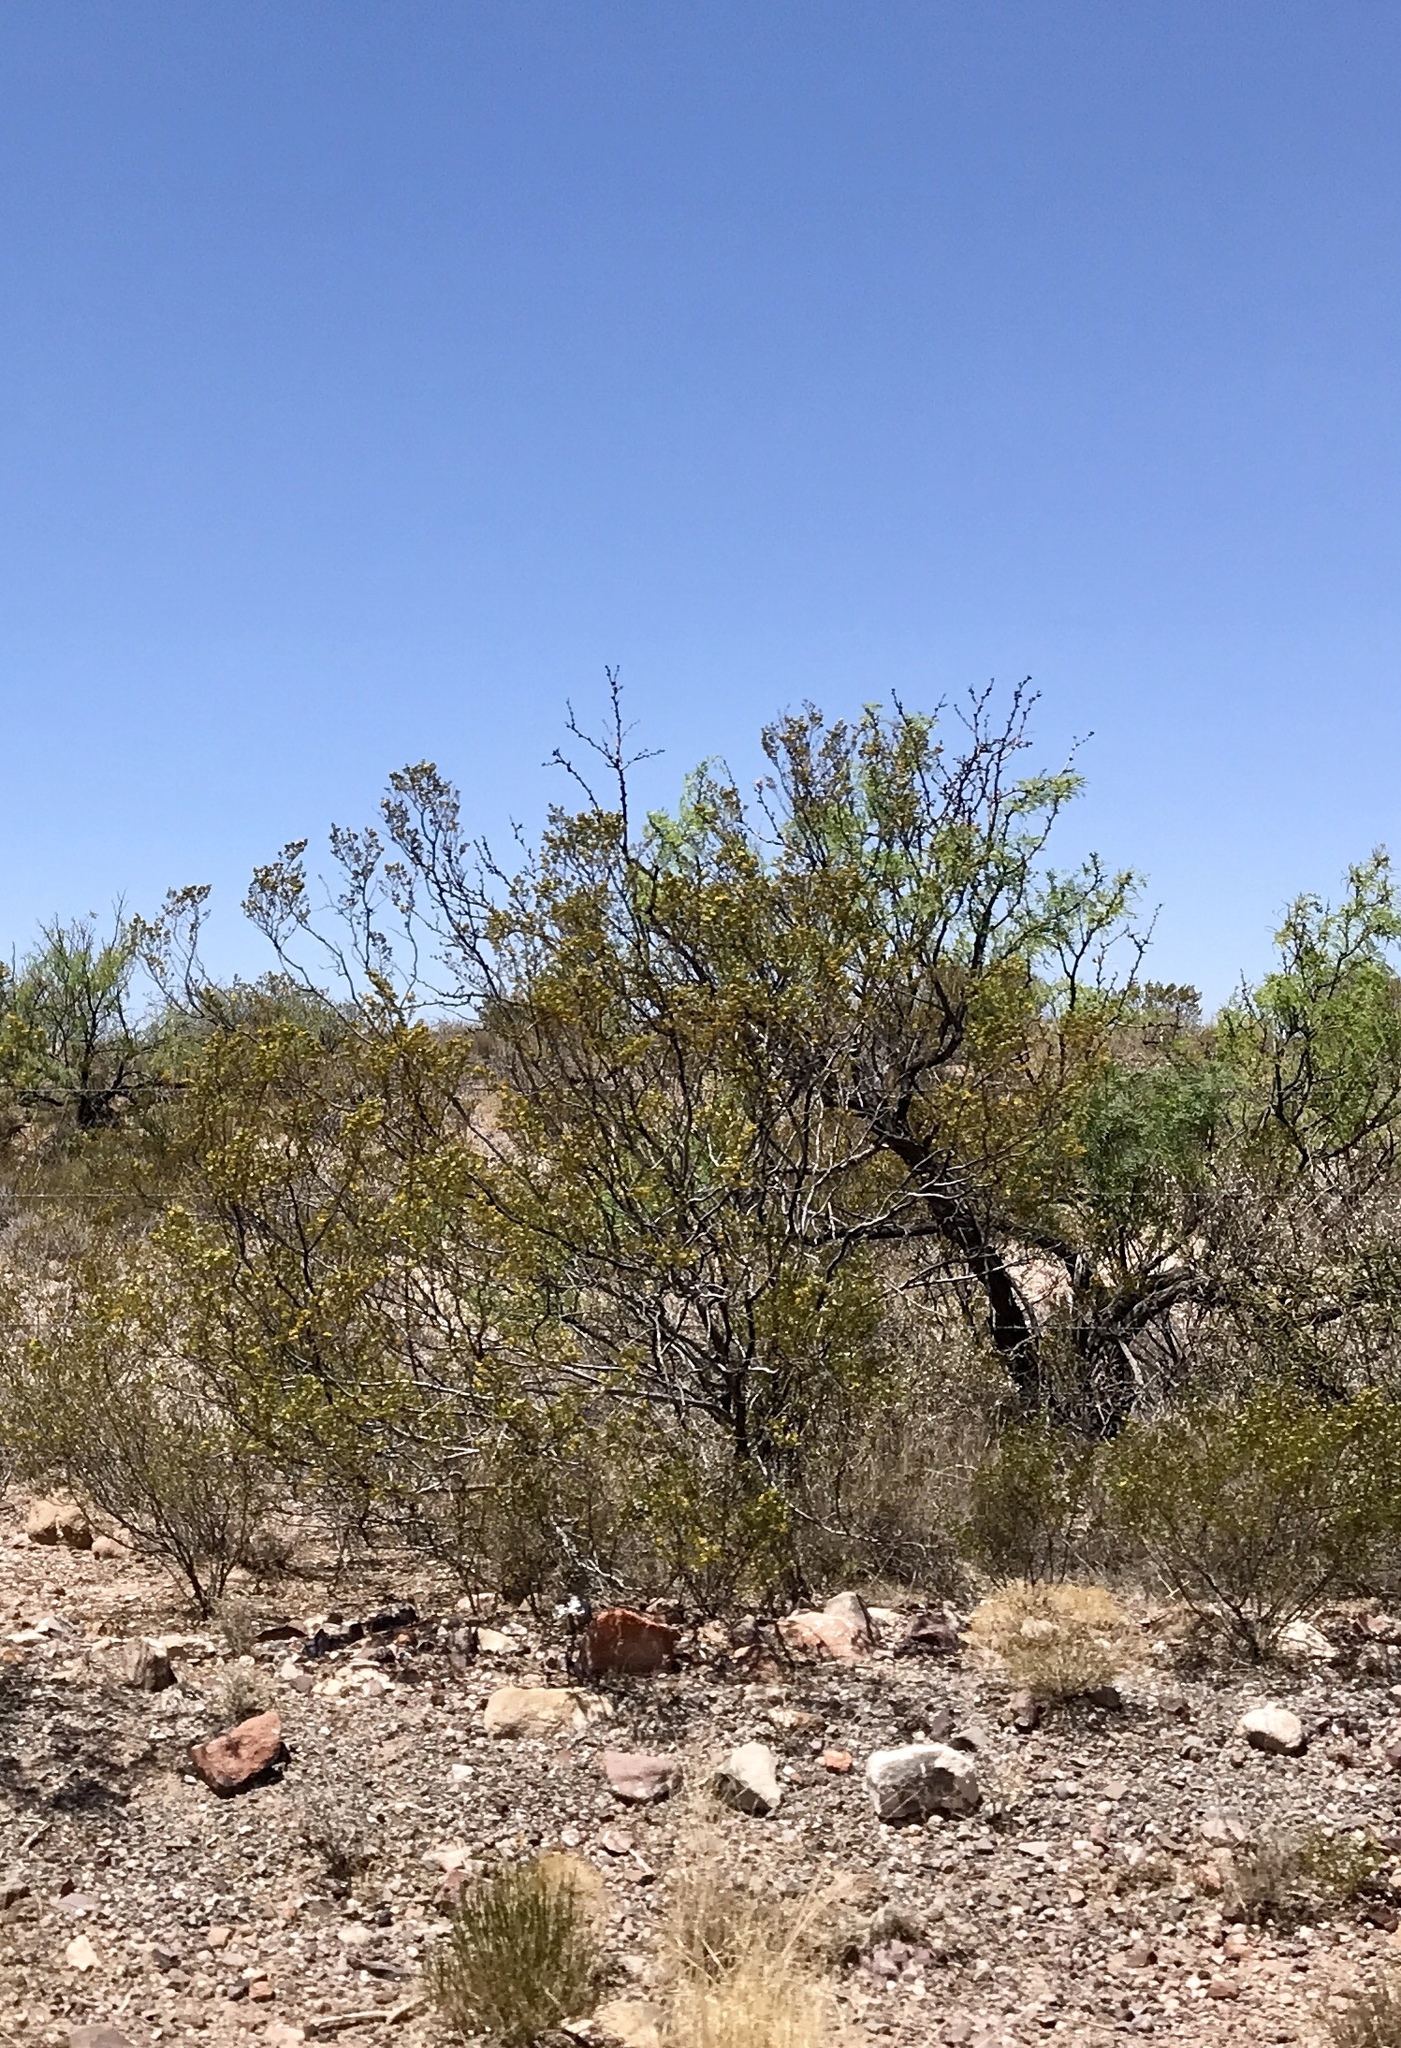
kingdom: Plantae
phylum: Tracheophyta
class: Magnoliopsida
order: Zygophyllales
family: Zygophyllaceae
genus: Larrea
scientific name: Larrea tridentata
